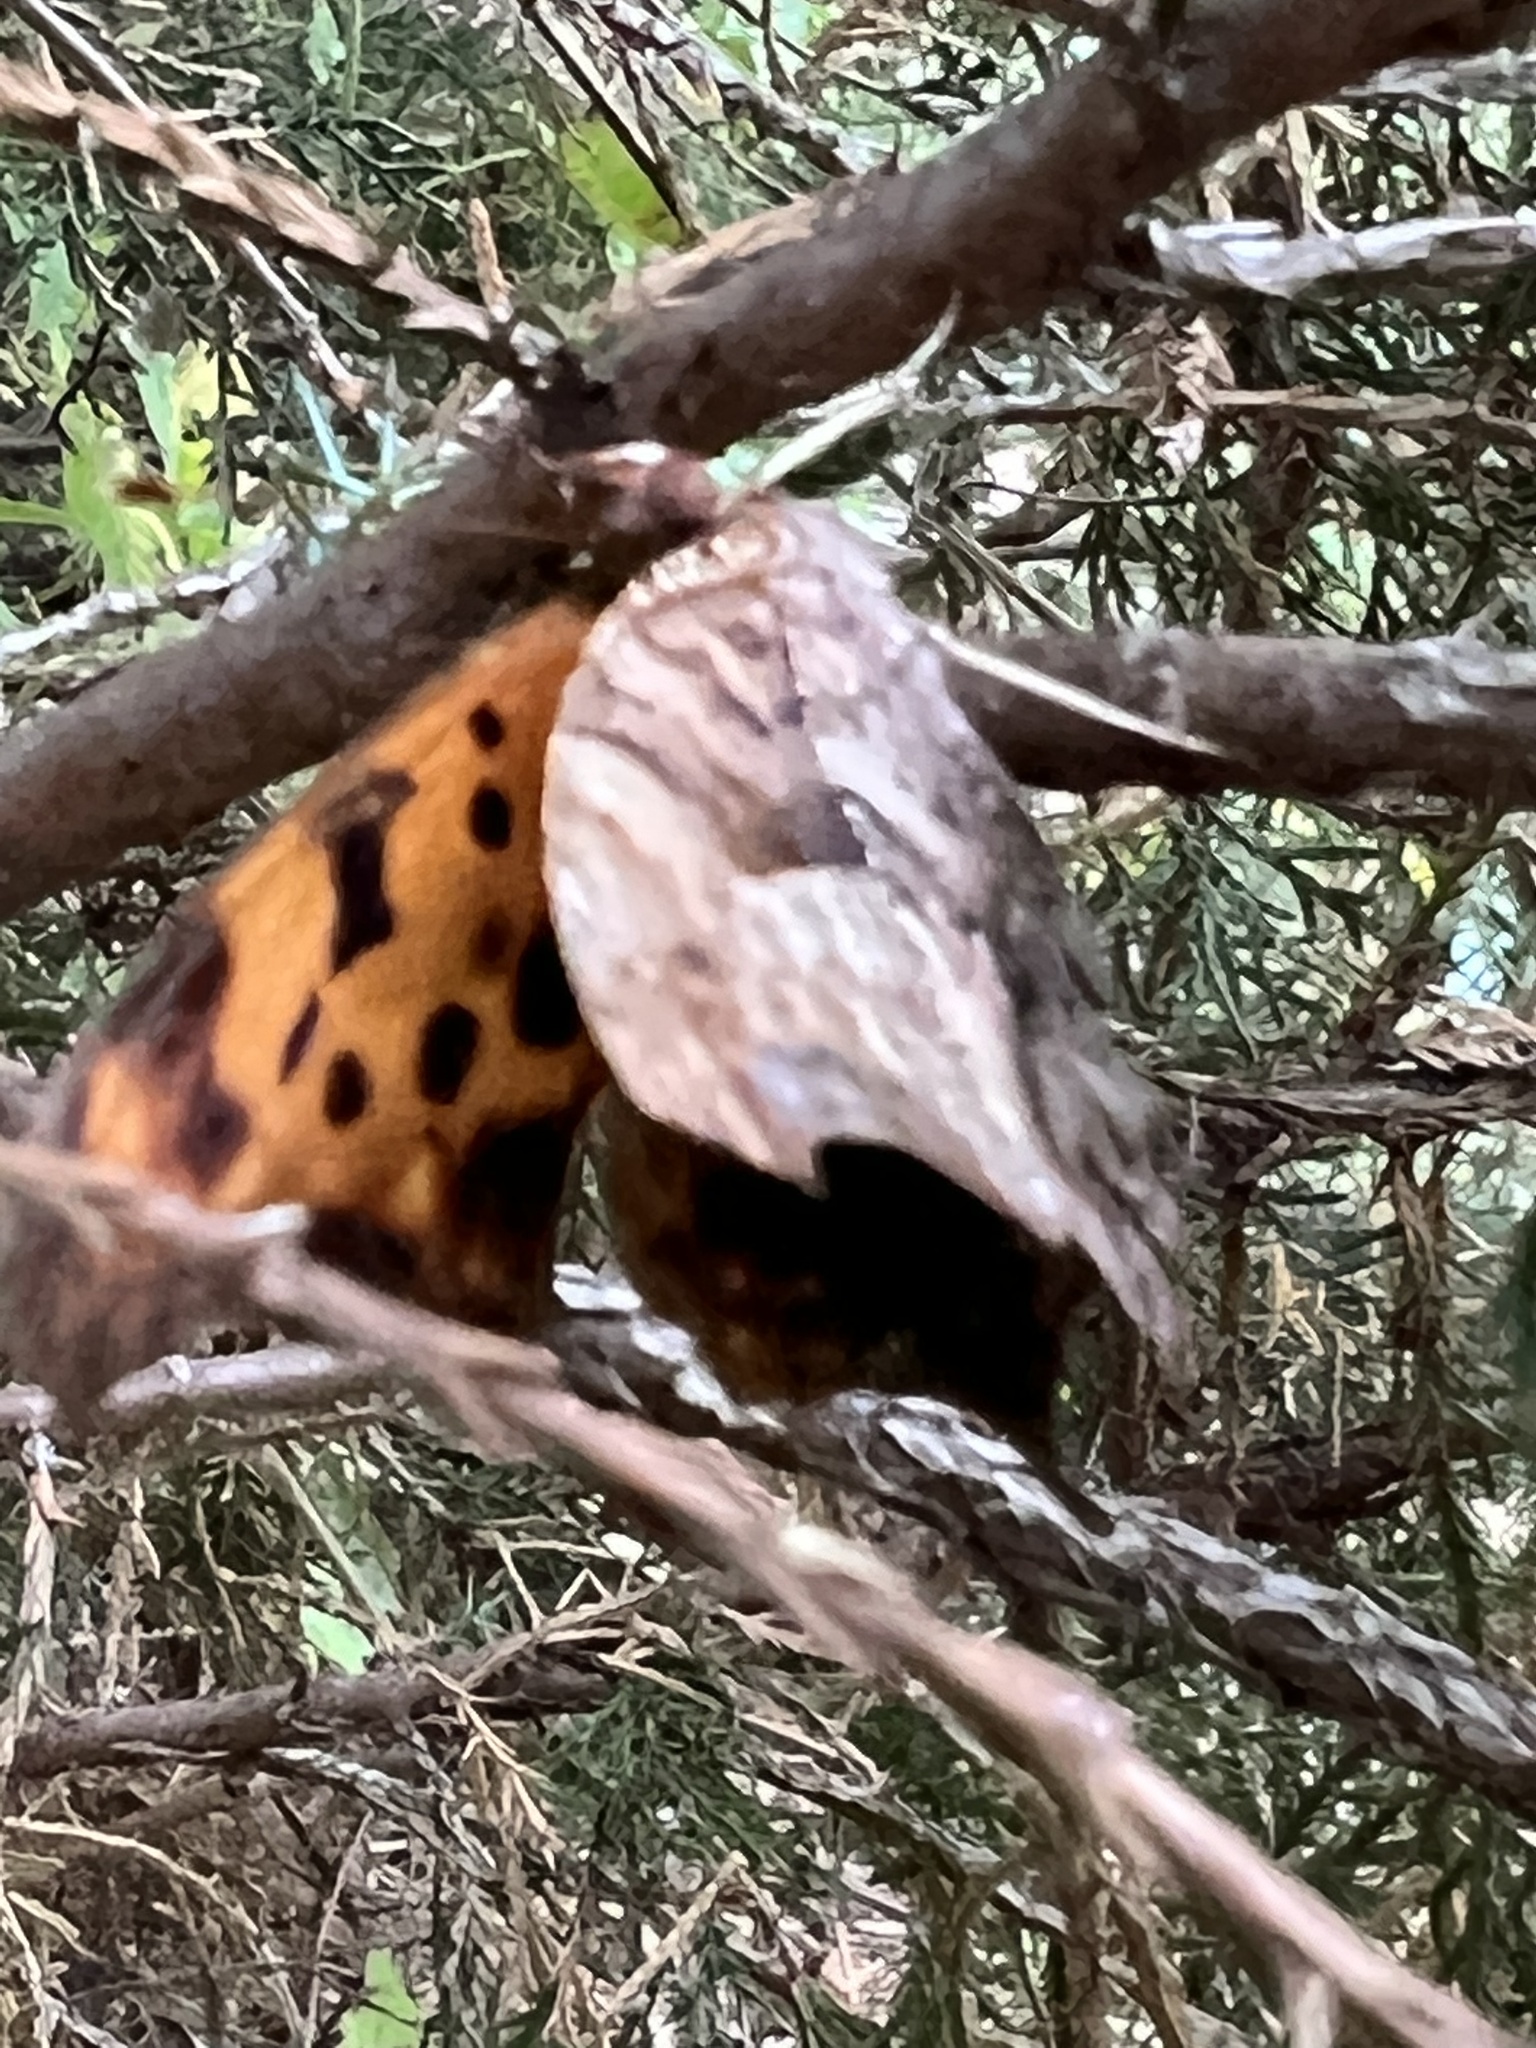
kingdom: Animalia
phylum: Arthropoda
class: Insecta
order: Lepidoptera
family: Nymphalidae
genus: Polygonia
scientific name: Polygonia interrogationis
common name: Question mark
